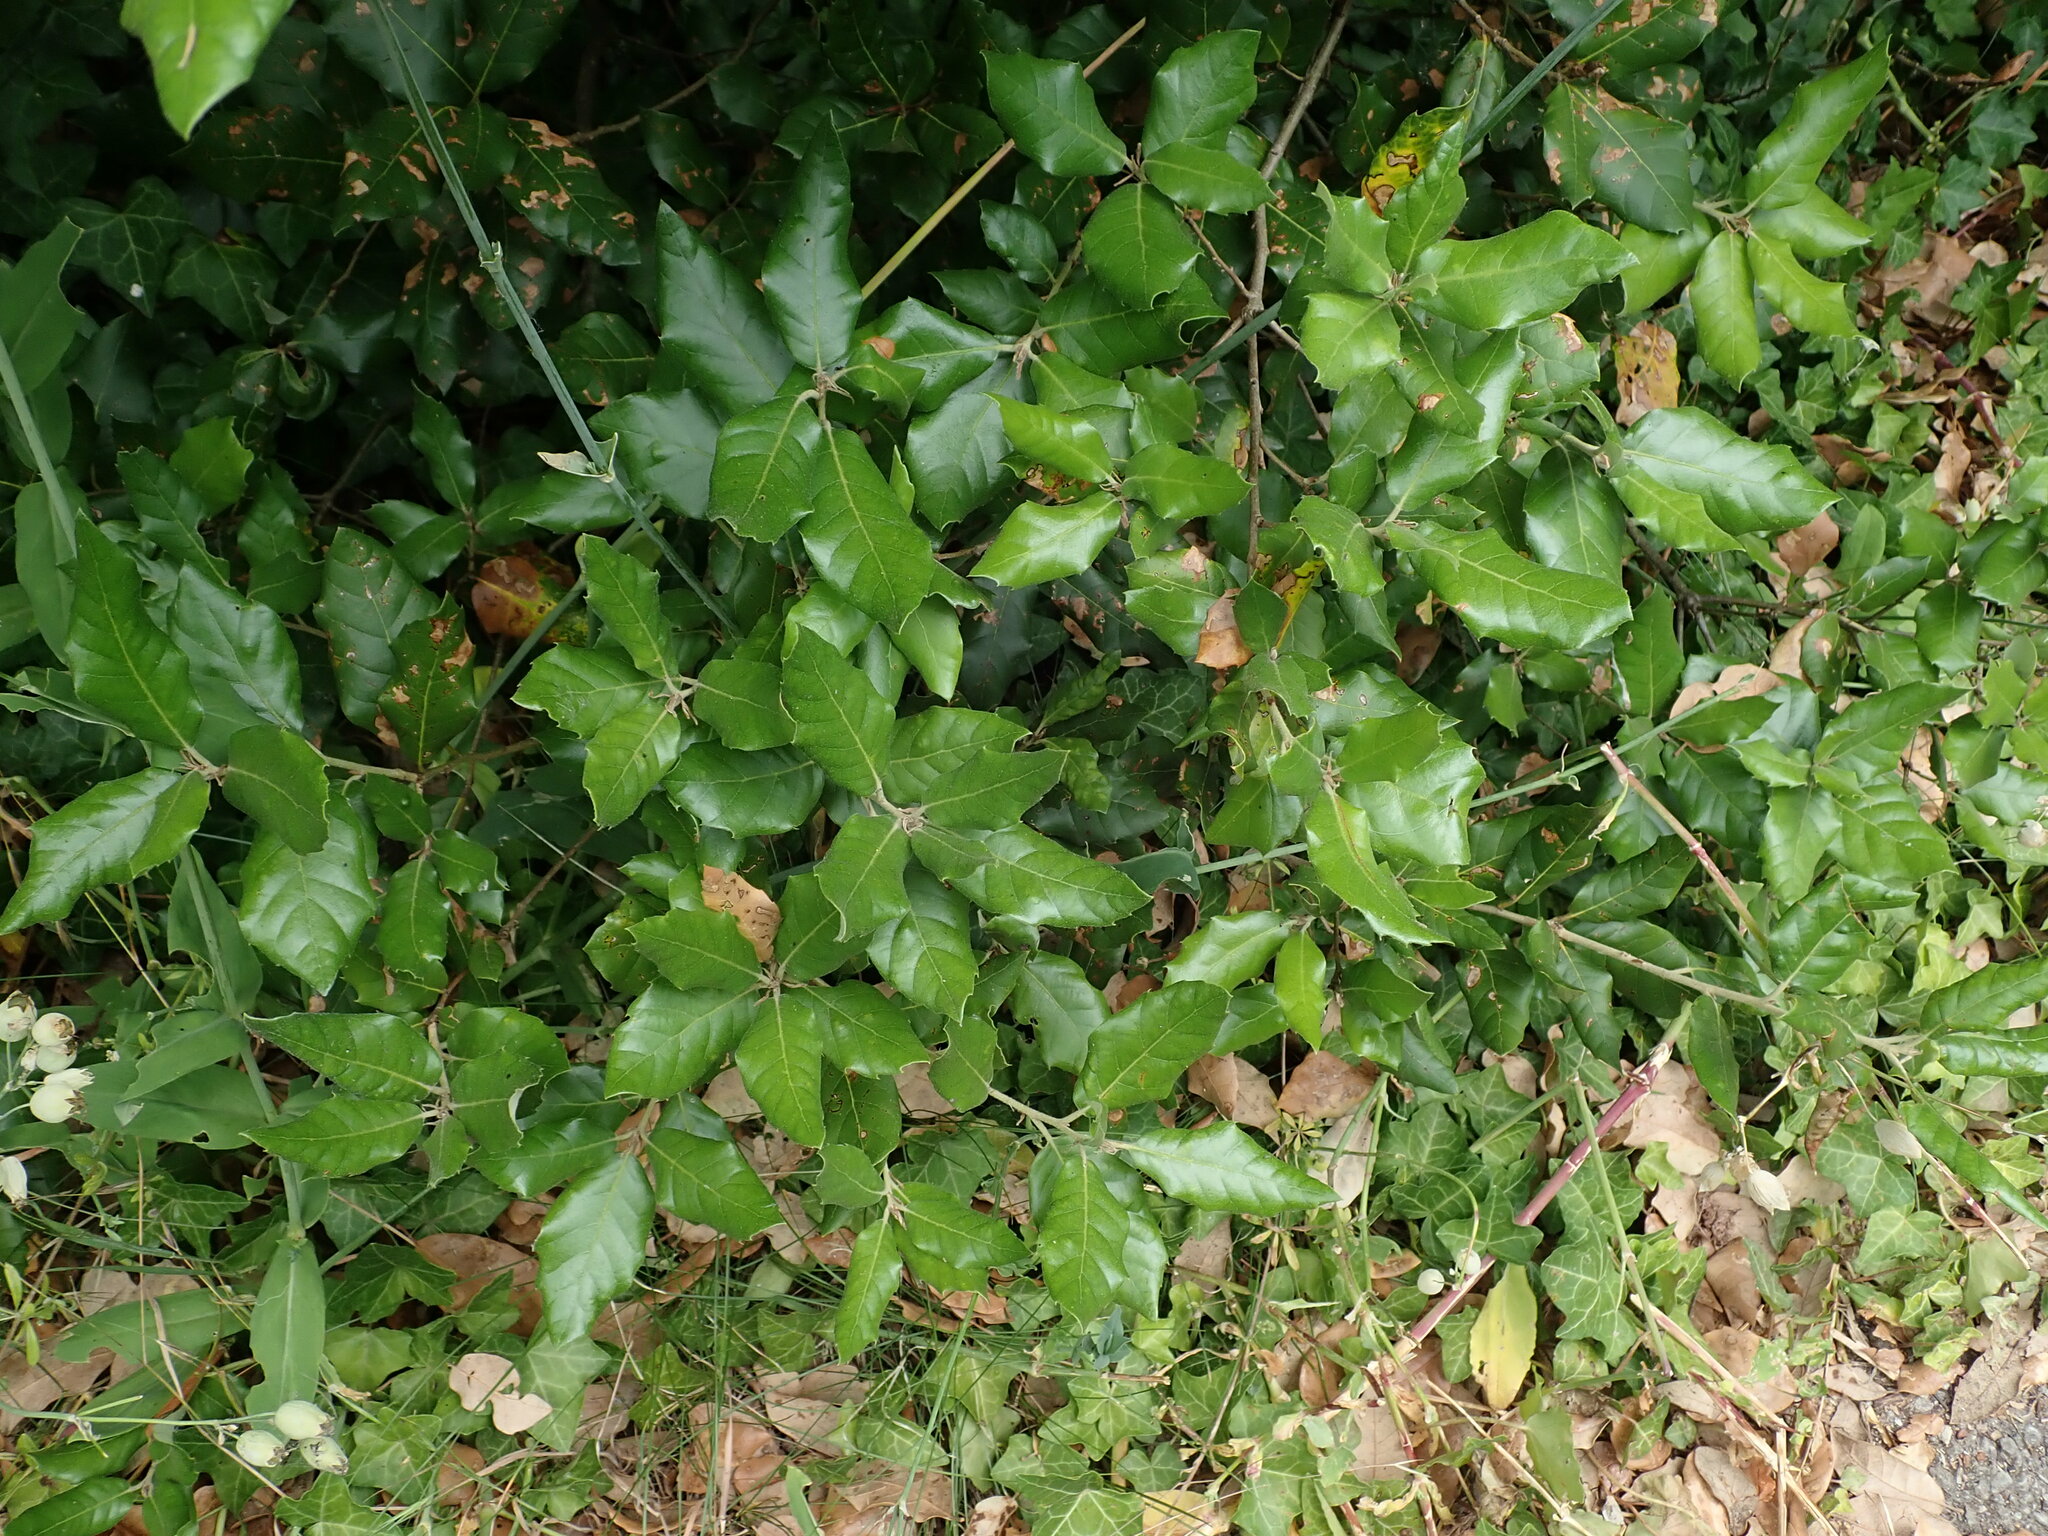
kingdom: Plantae
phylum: Tracheophyta
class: Magnoliopsida
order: Fagales
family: Fagaceae
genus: Quercus
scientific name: Quercus ilex
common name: Evergreen oak
